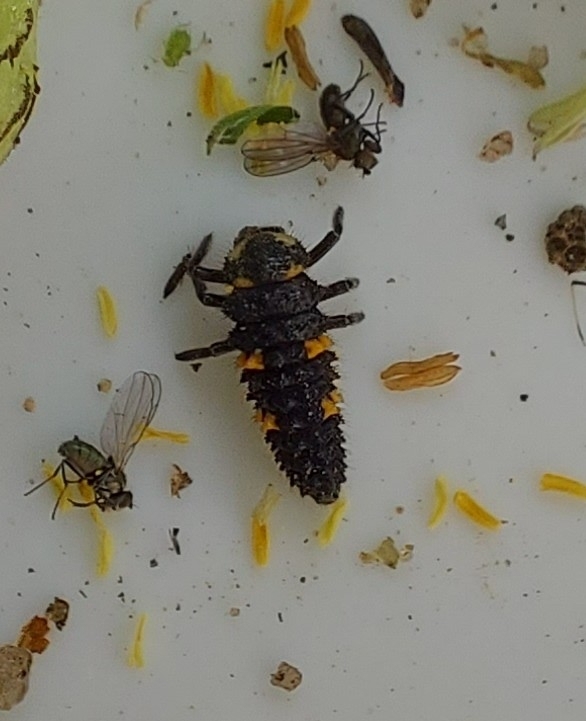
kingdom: Animalia
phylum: Arthropoda
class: Insecta
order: Coleoptera
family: Coccinellidae
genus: Coccinella
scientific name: Coccinella septempunctata
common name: Sevenspotted lady beetle
